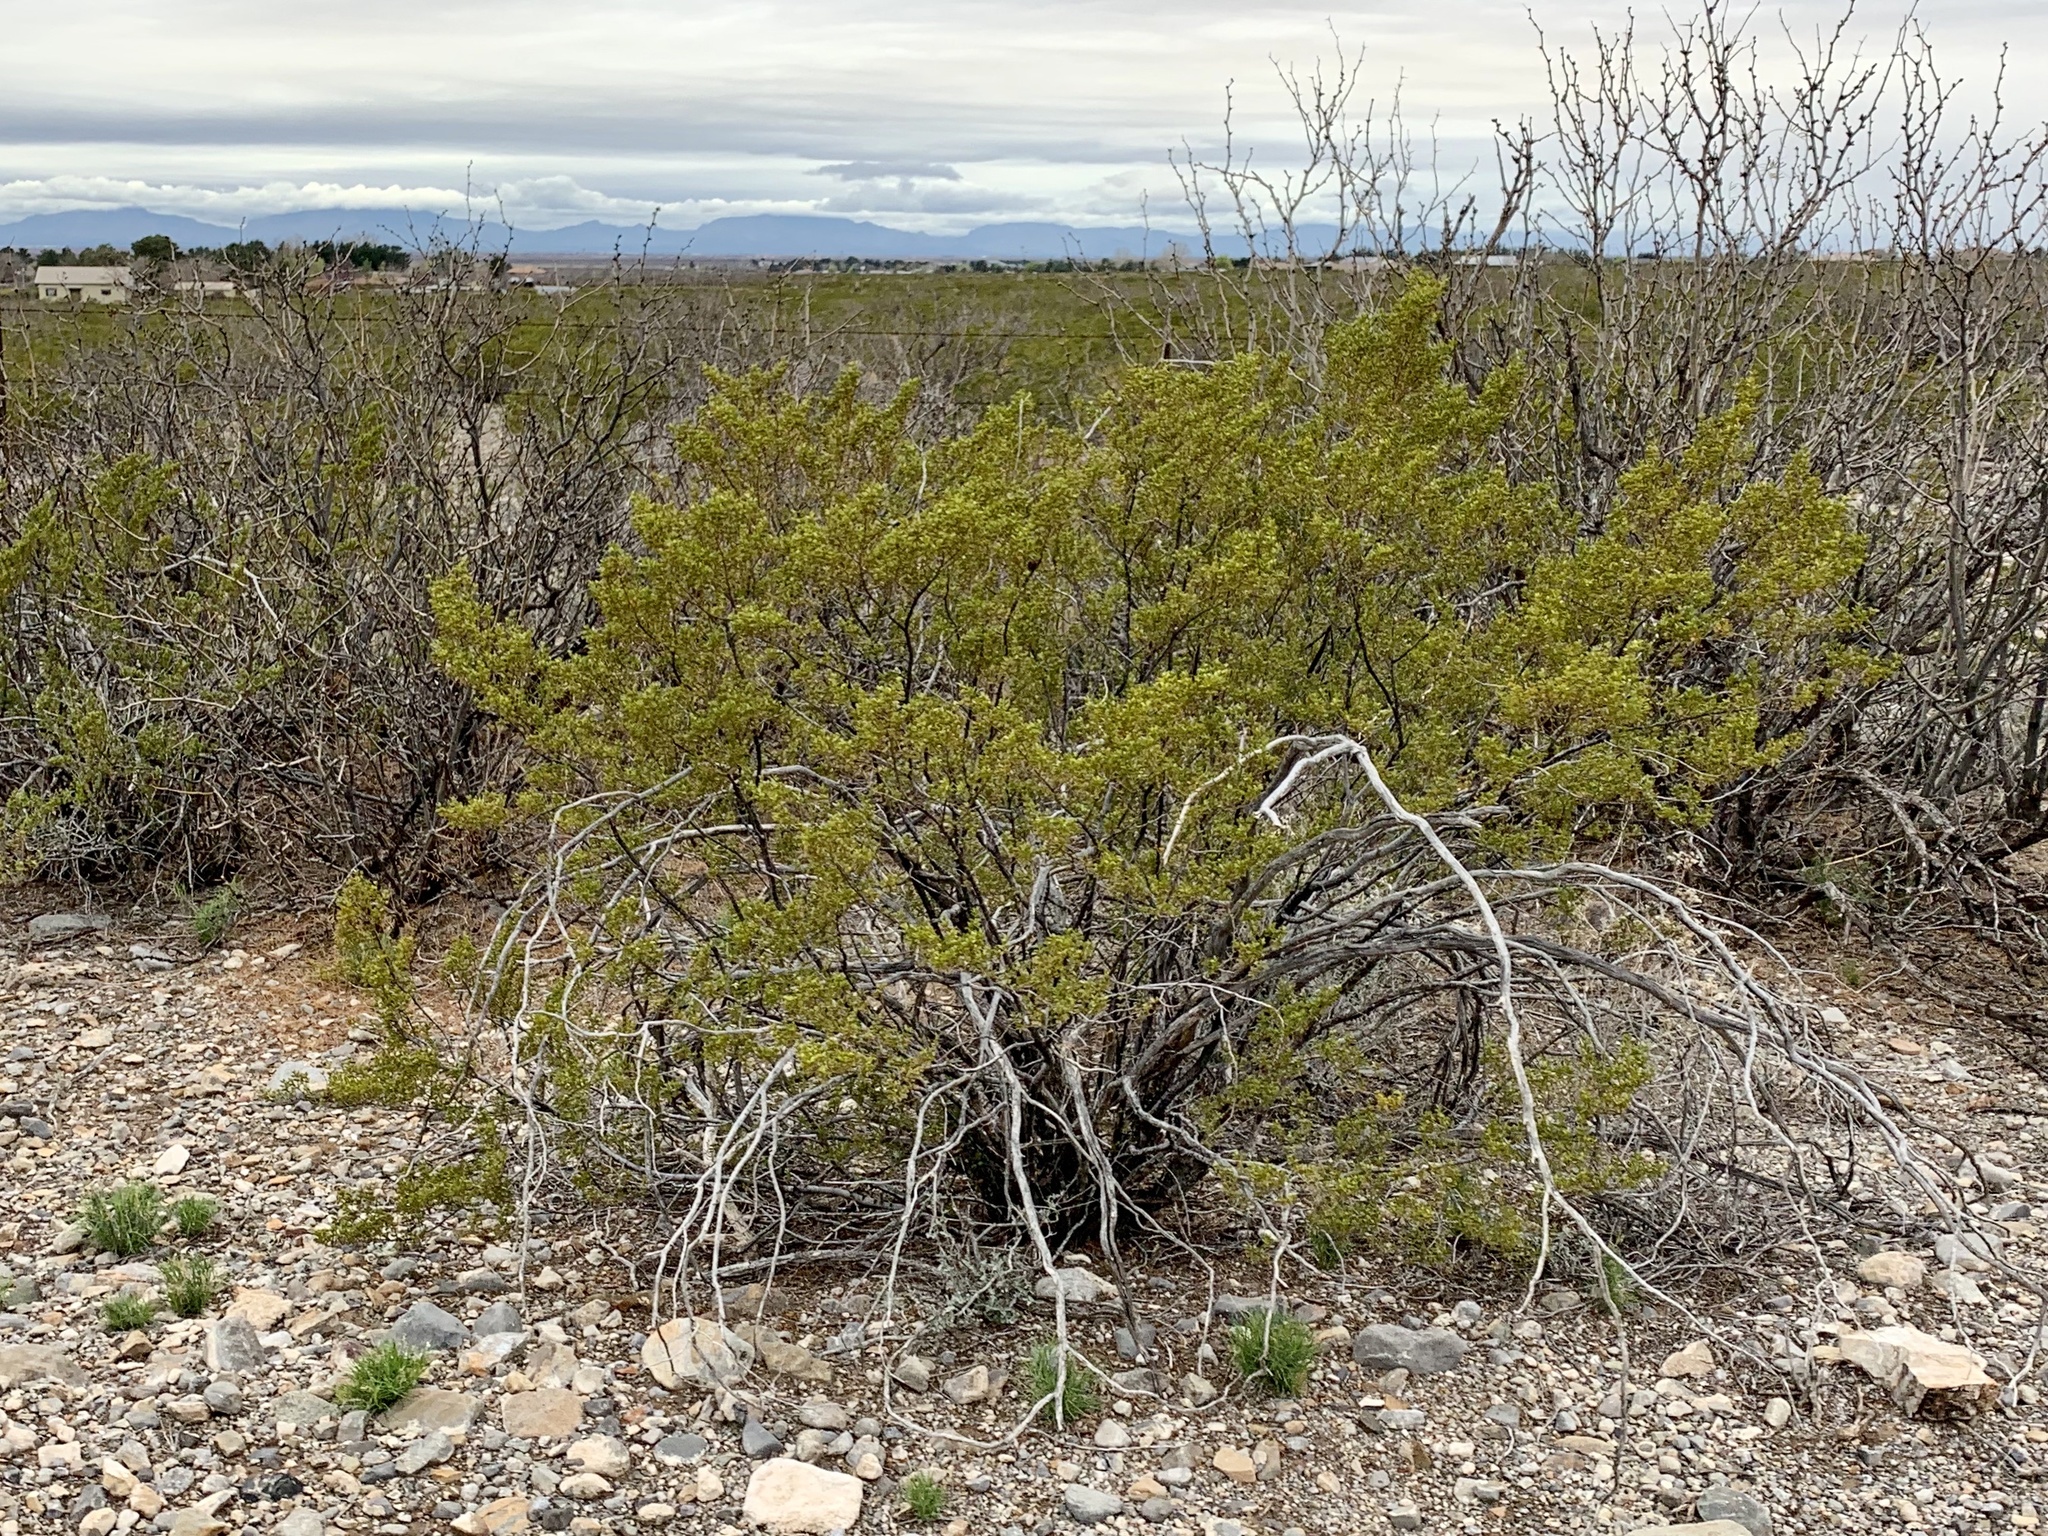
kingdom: Plantae
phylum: Tracheophyta
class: Magnoliopsida
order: Zygophyllales
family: Zygophyllaceae
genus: Larrea
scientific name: Larrea tridentata
